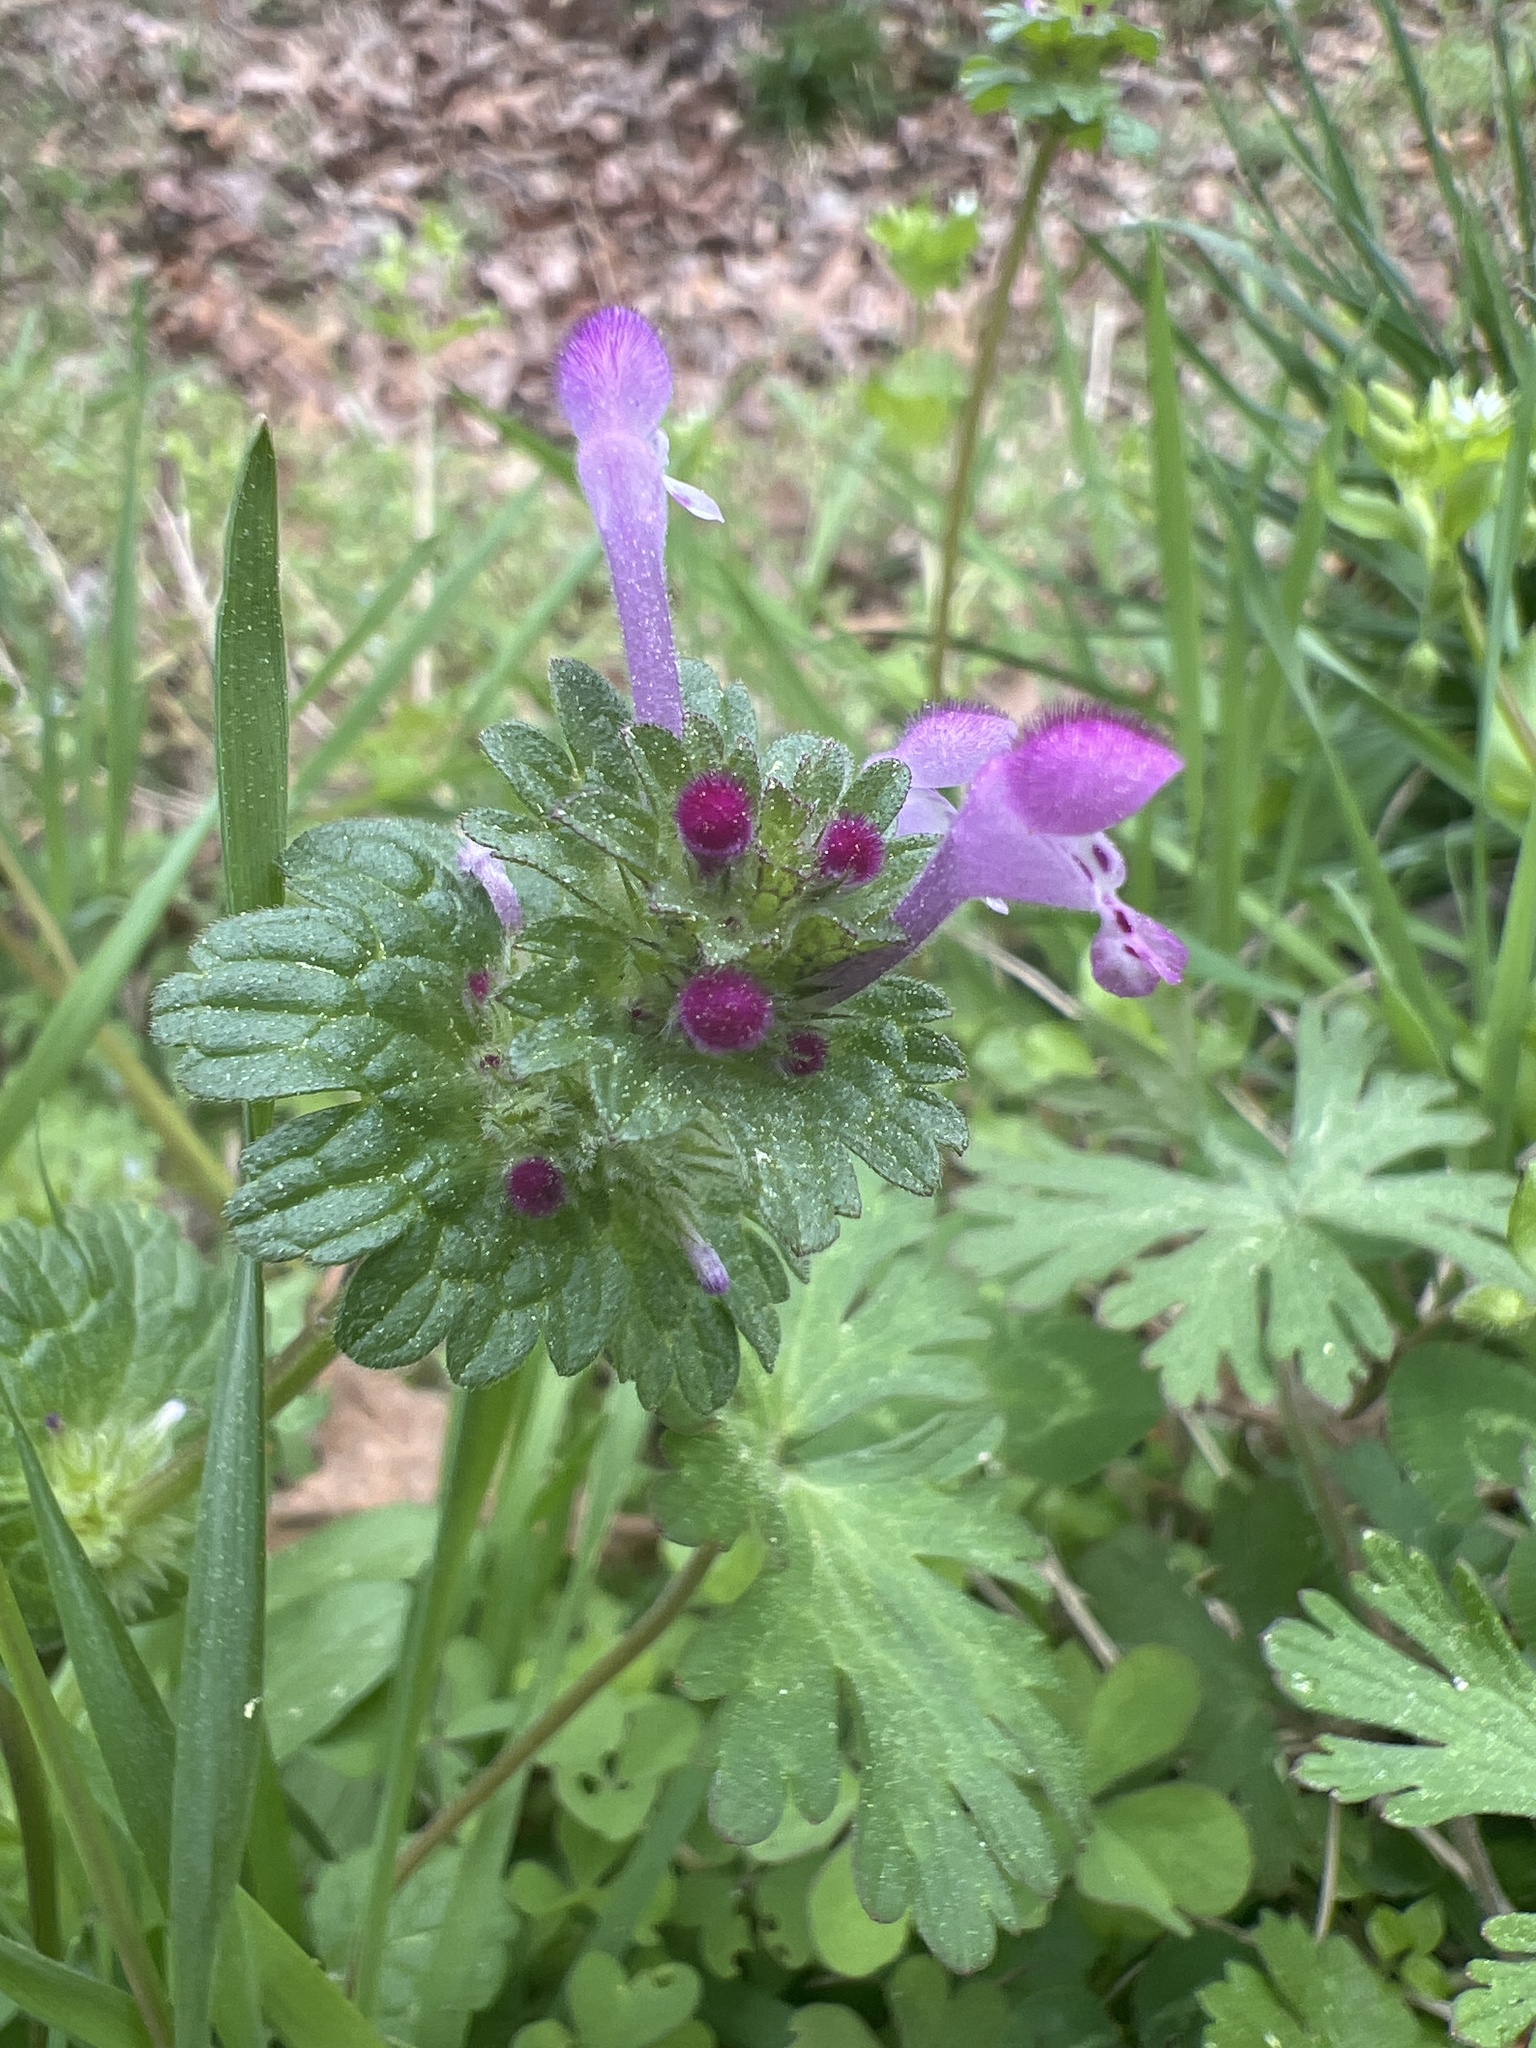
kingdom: Plantae
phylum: Tracheophyta
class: Magnoliopsida
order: Lamiales
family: Lamiaceae
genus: Lamium
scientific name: Lamium amplexicaule
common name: Henbit dead-nettle
